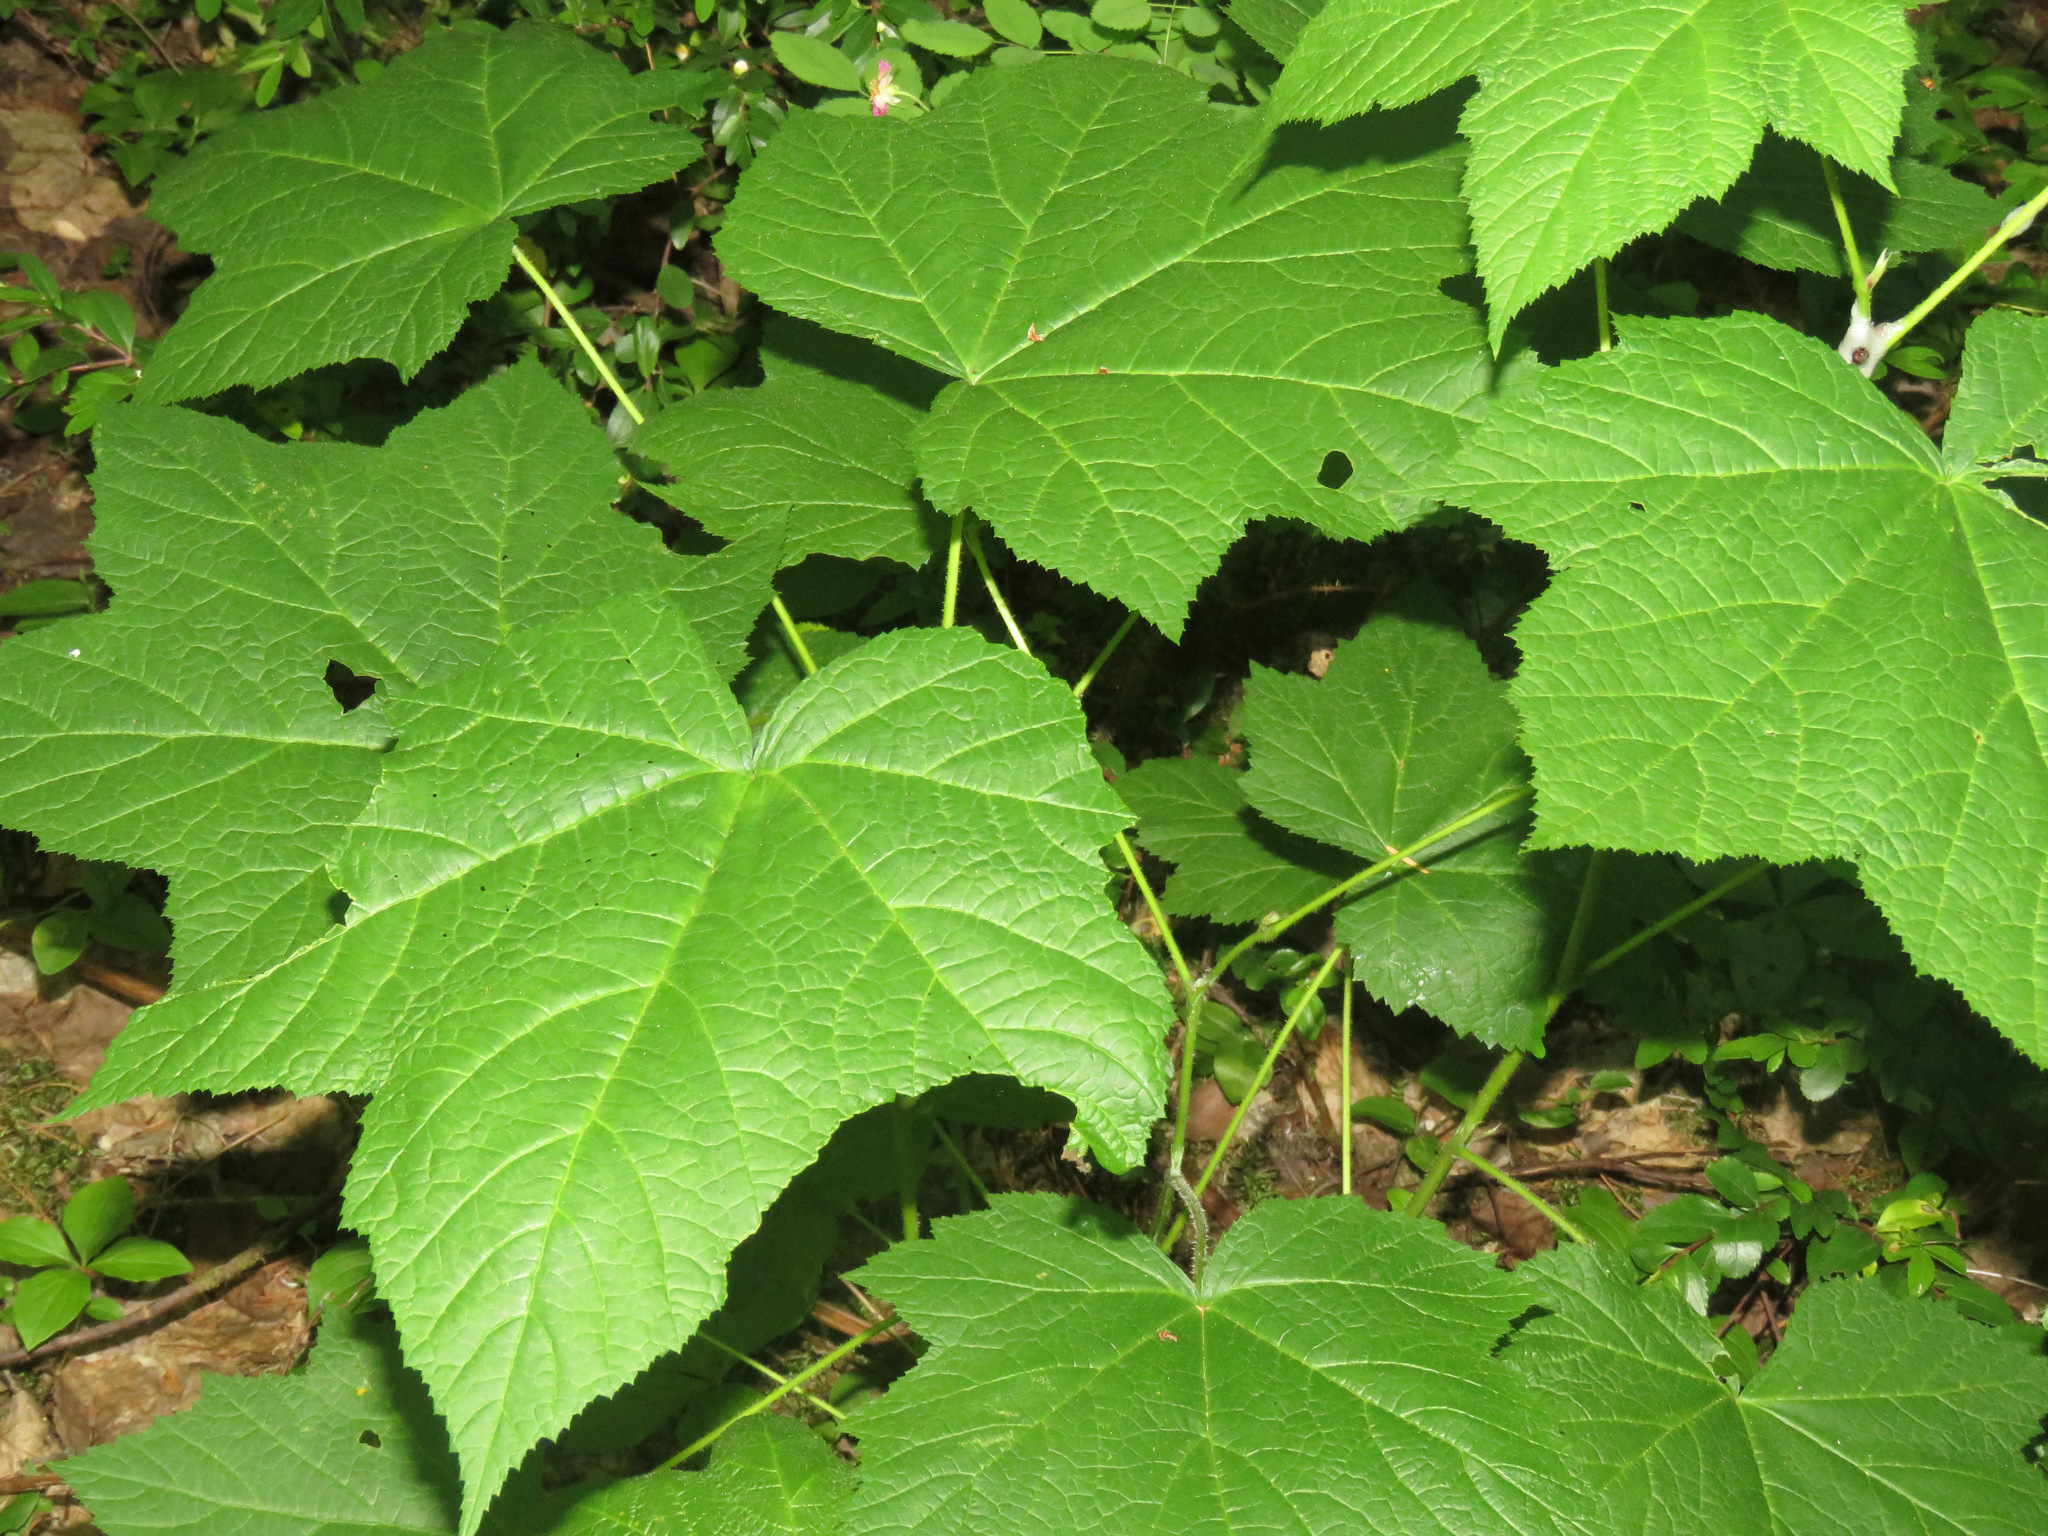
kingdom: Plantae
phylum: Tracheophyta
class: Magnoliopsida
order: Rosales
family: Rosaceae
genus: Rubus
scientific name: Rubus parviflorus
